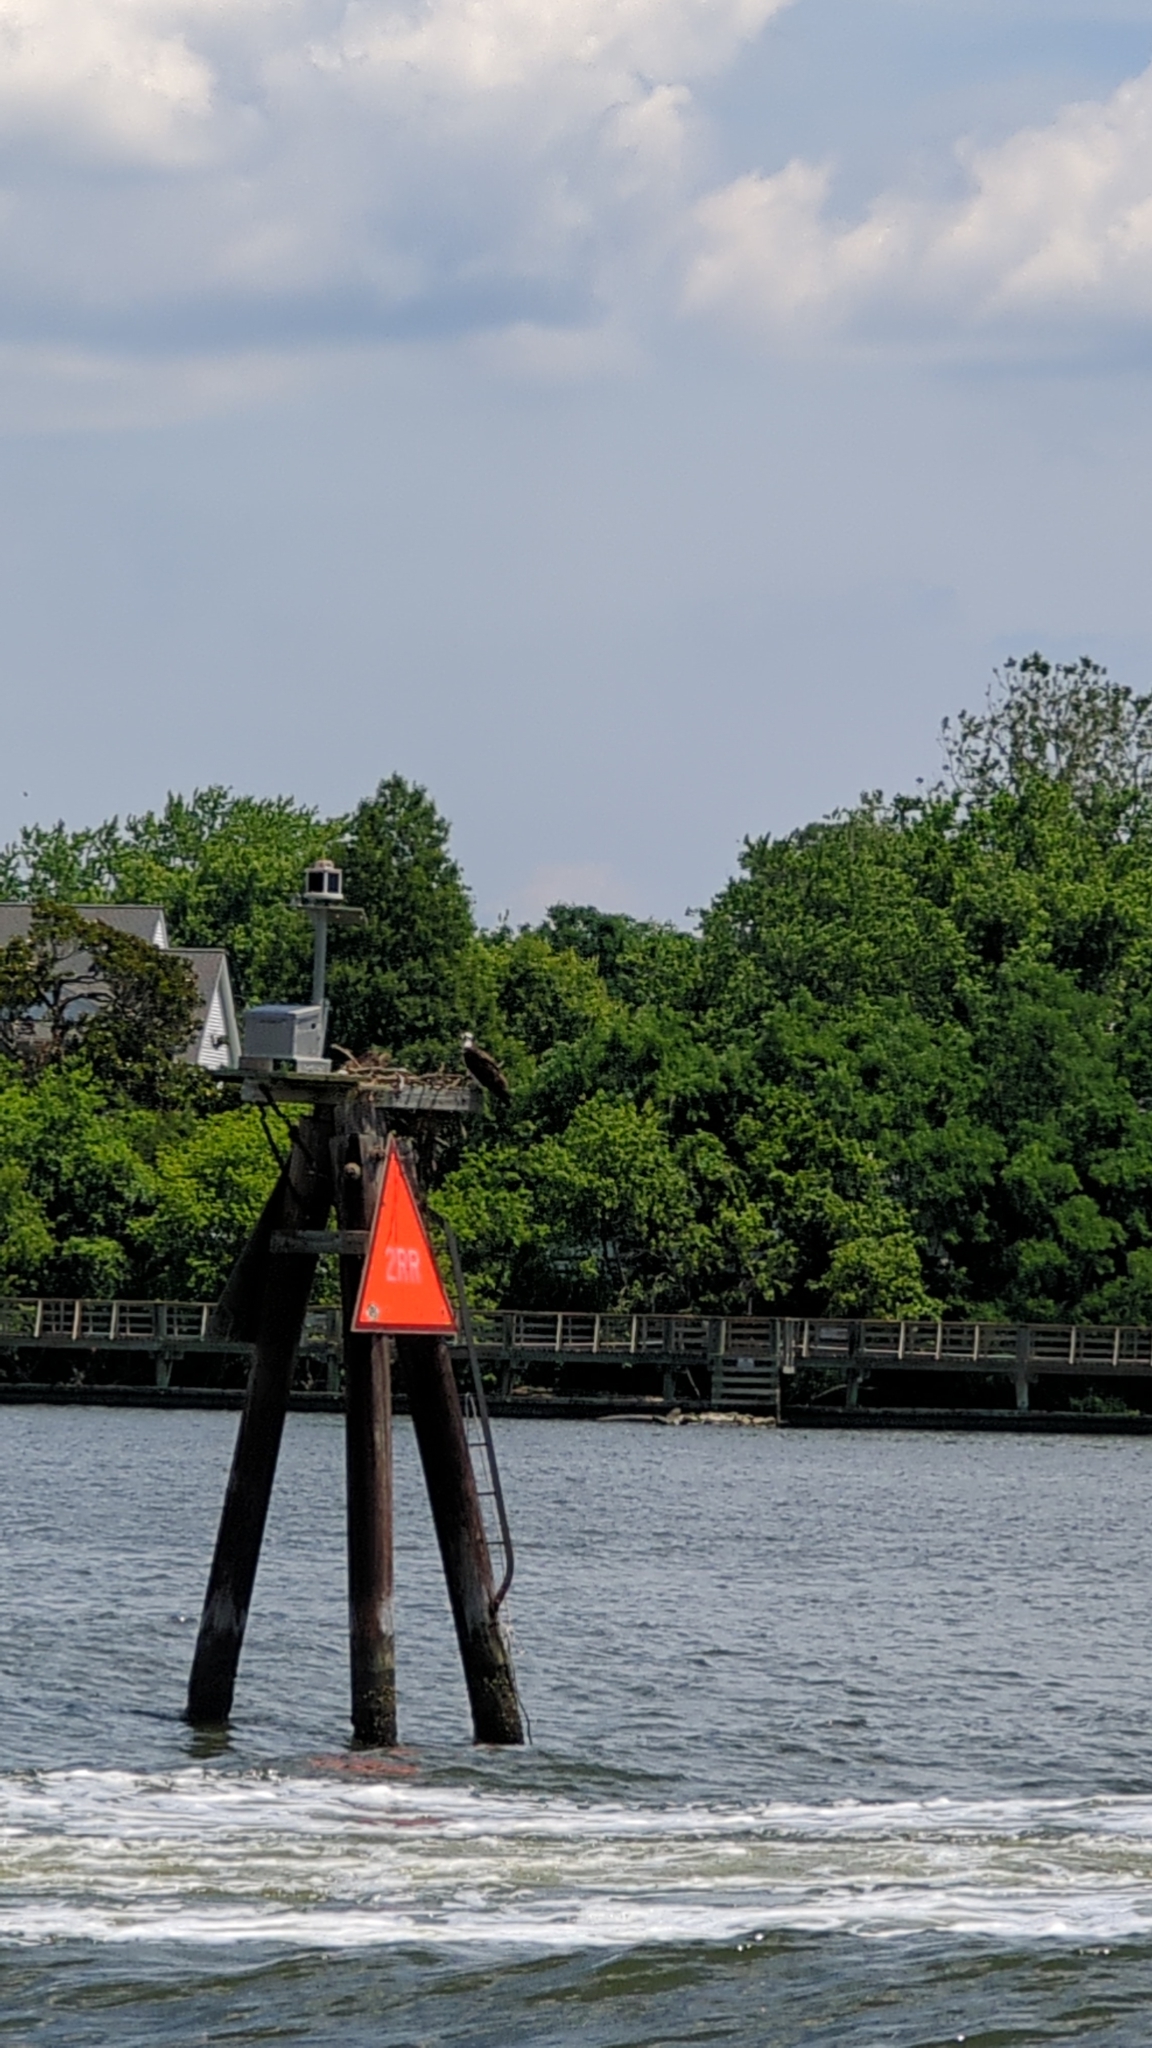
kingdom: Animalia
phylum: Chordata
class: Aves
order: Accipitriformes
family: Pandionidae
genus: Pandion
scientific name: Pandion haliaetus
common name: Osprey
